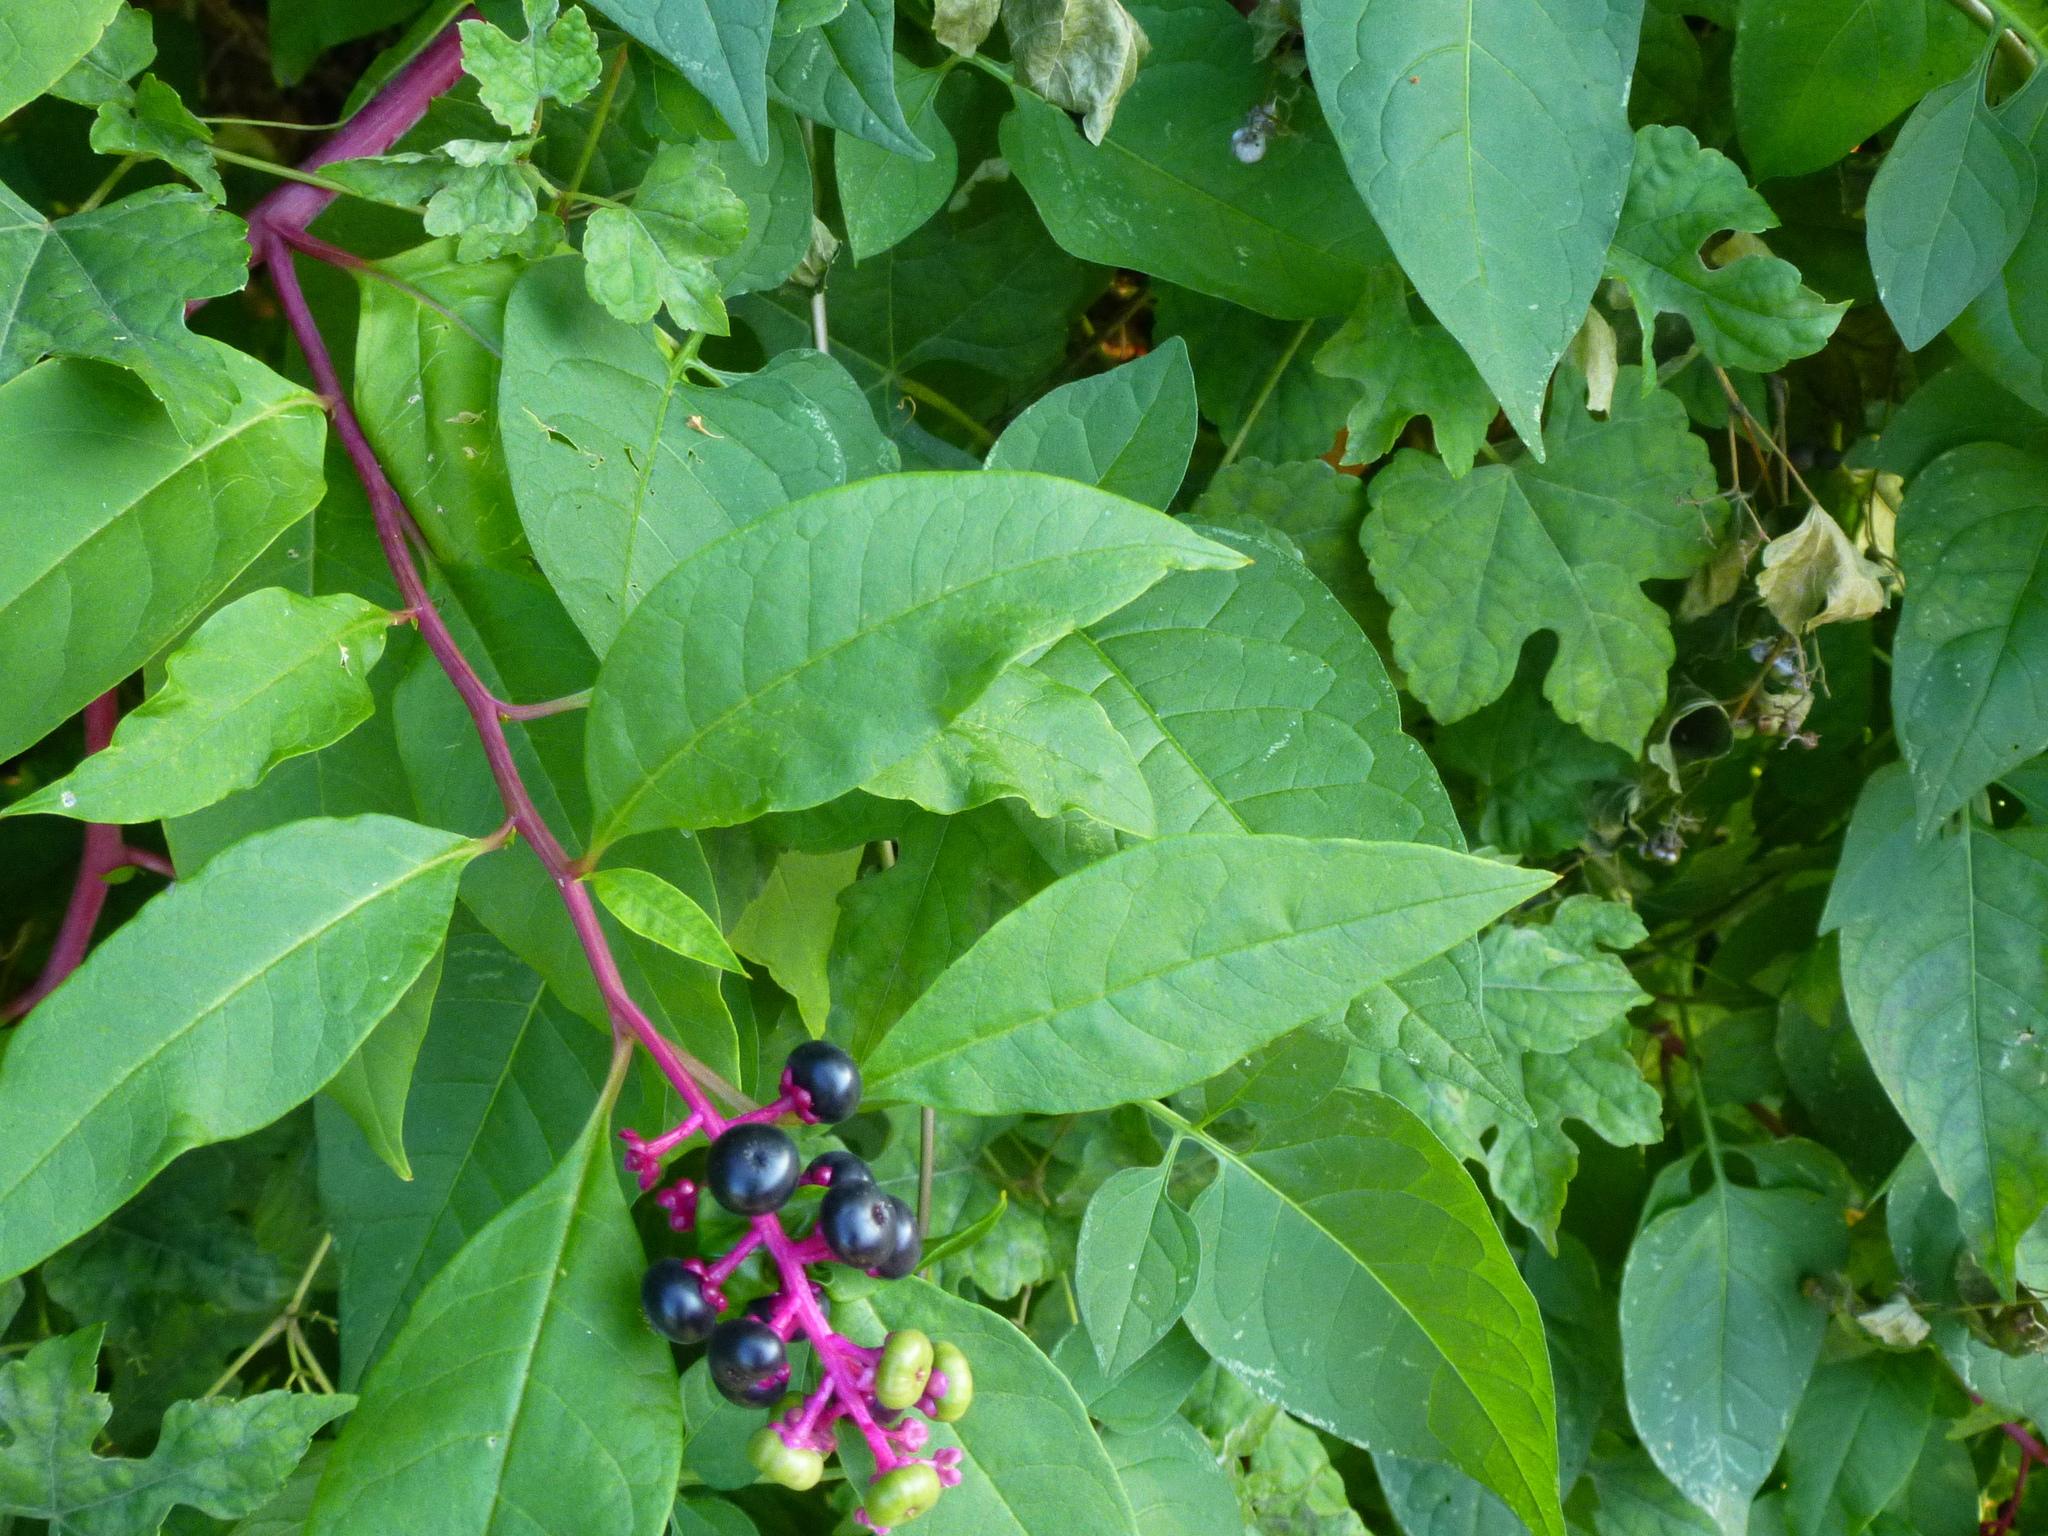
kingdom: Plantae
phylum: Tracheophyta
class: Magnoliopsida
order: Caryophyllales
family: Phytolaccaceae
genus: Phytolacca
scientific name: Phytolacca americana
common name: American pokeweed
